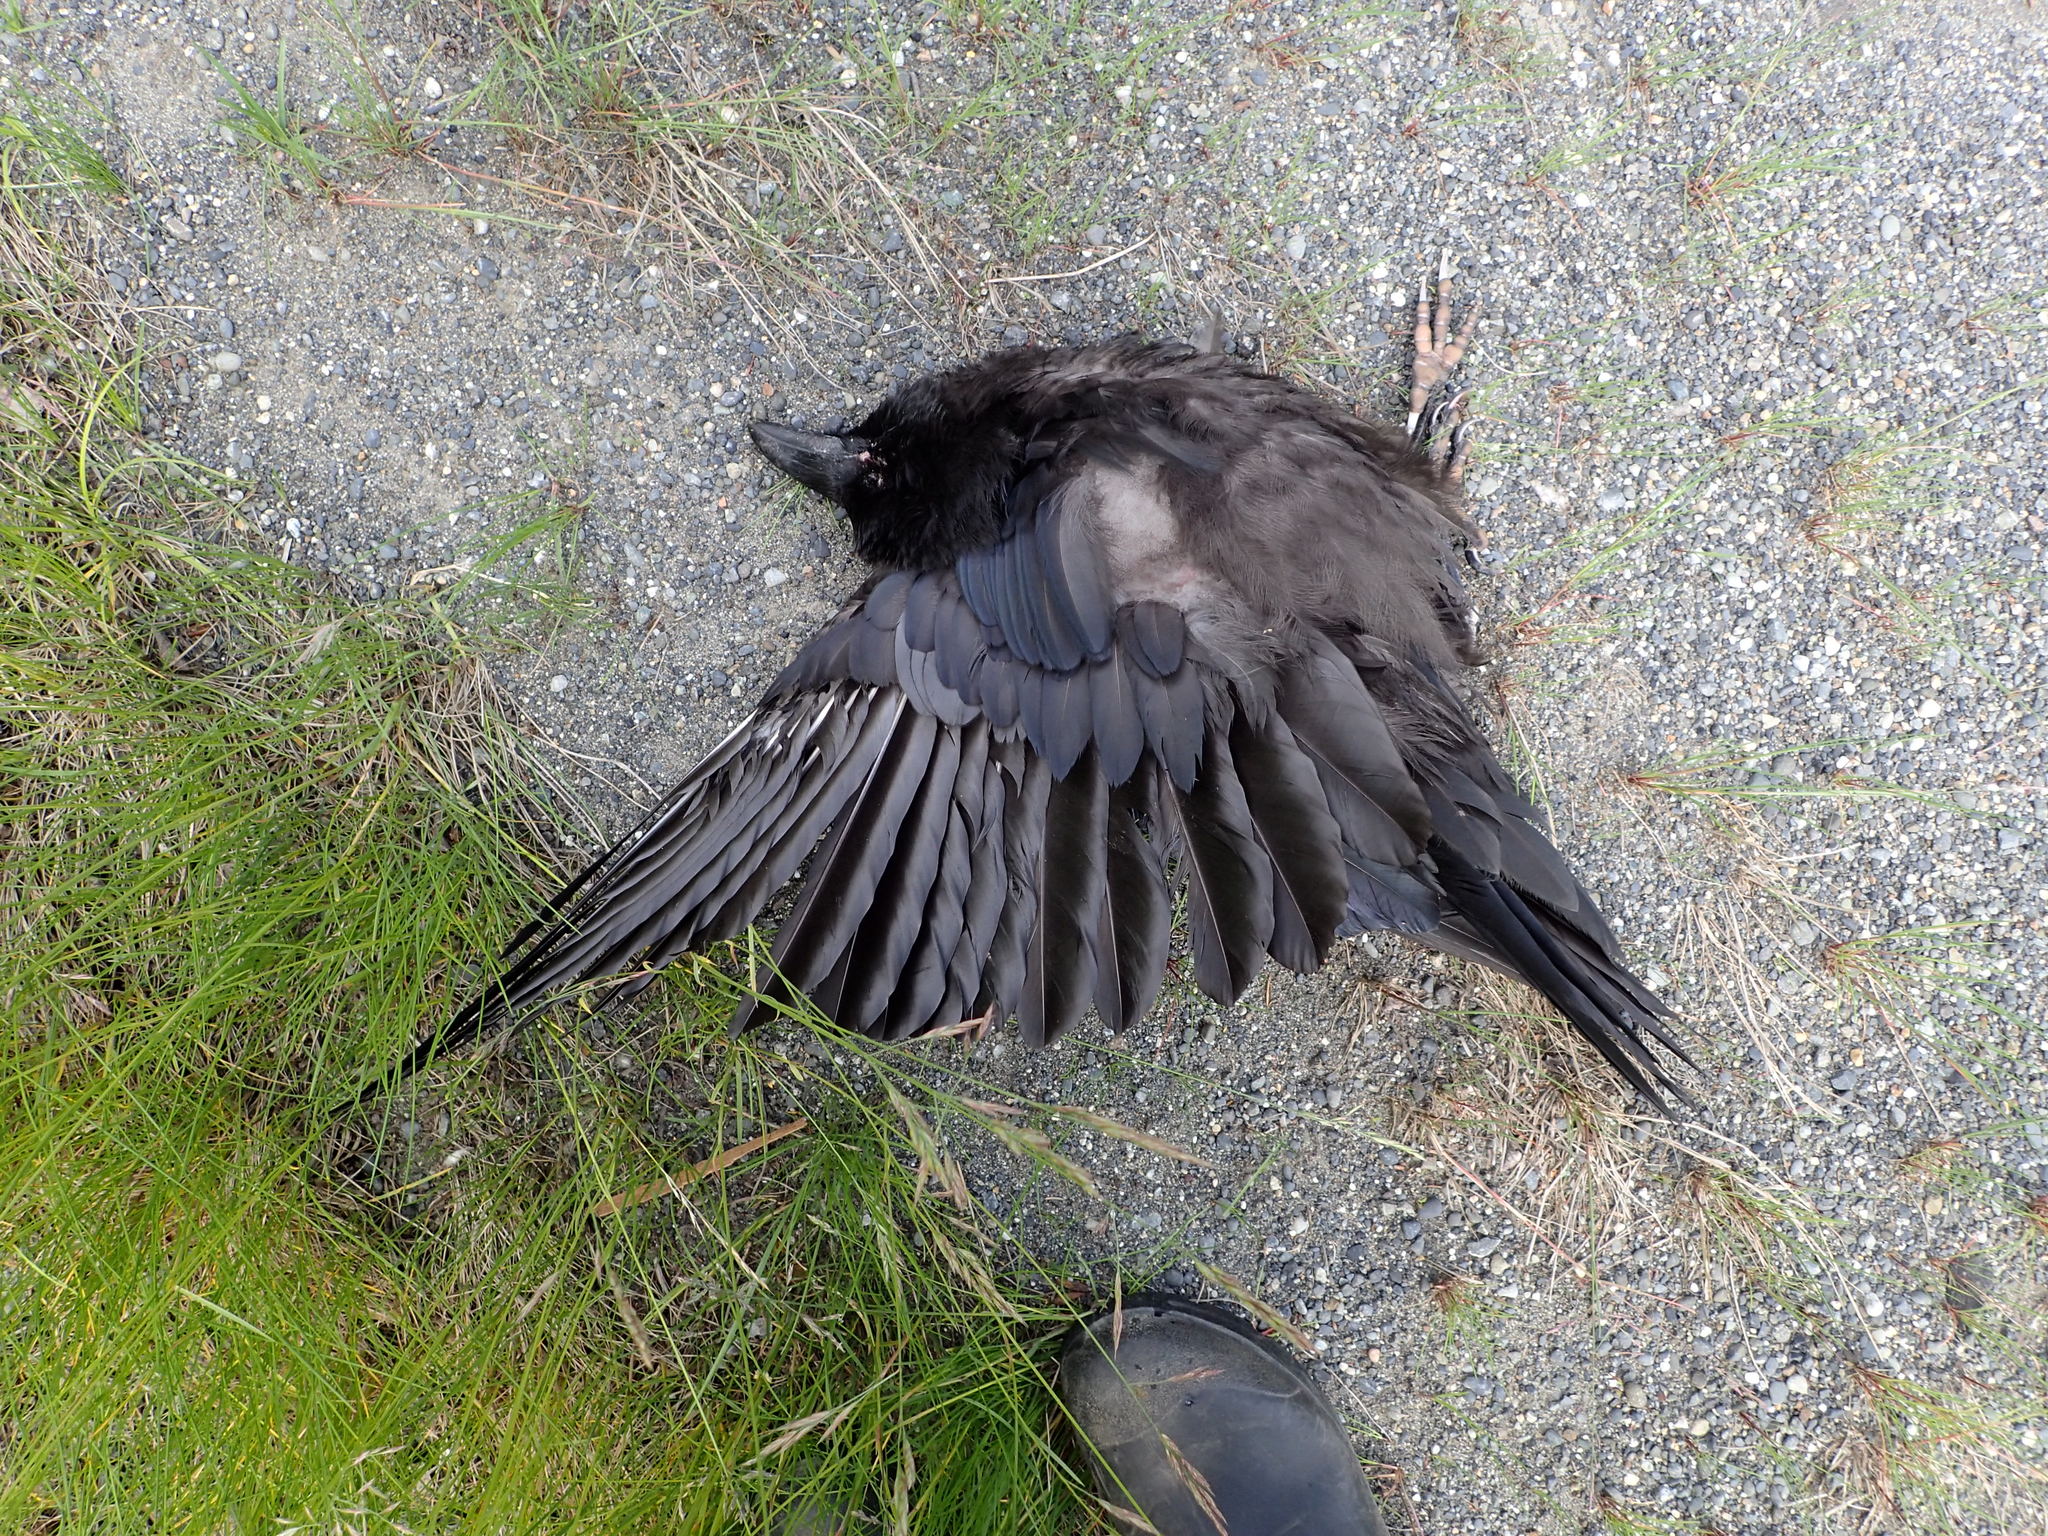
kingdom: Animalia
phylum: Chordata
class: Aves
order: Passeriformes
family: Corvidae
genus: Corvus
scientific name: Corvus corax
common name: Common raven
